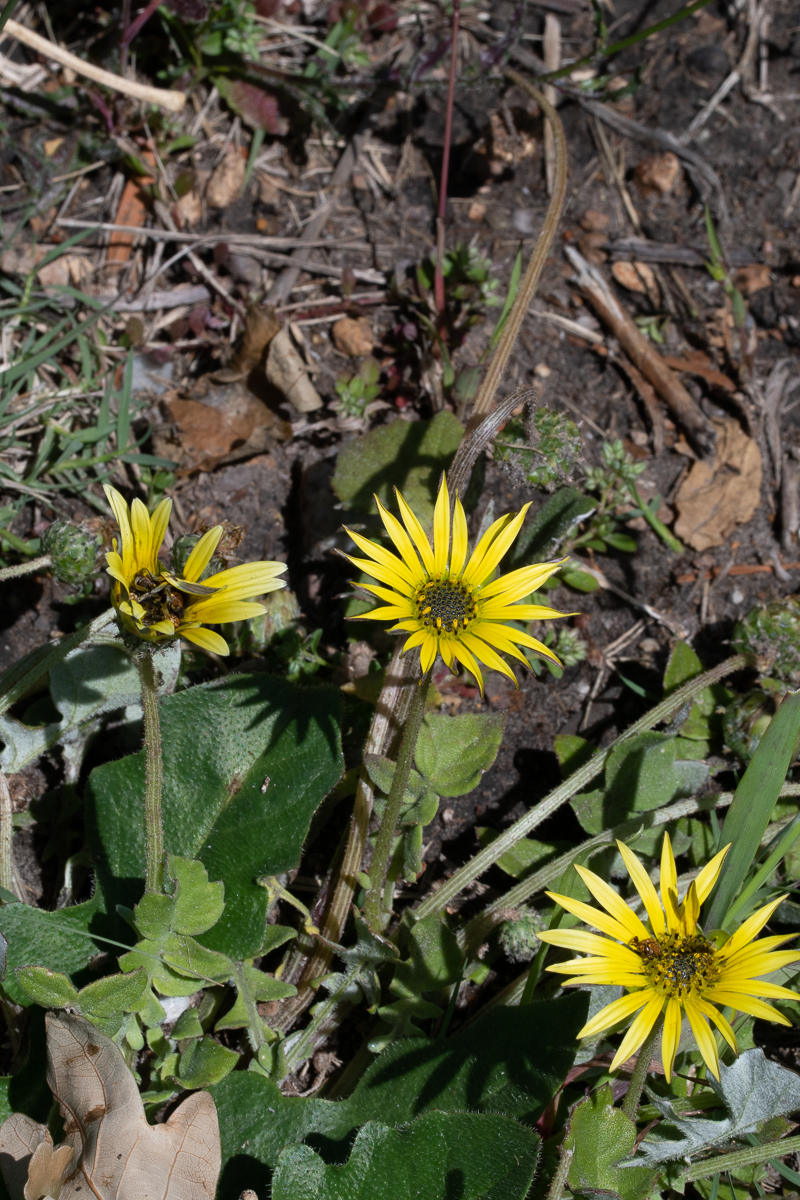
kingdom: Plantae
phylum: Tracheophyta
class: Magnoliopsida
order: Asterales
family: Asteraceae
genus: Arctotheca
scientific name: Arctotheca calendula
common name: Capeweed
